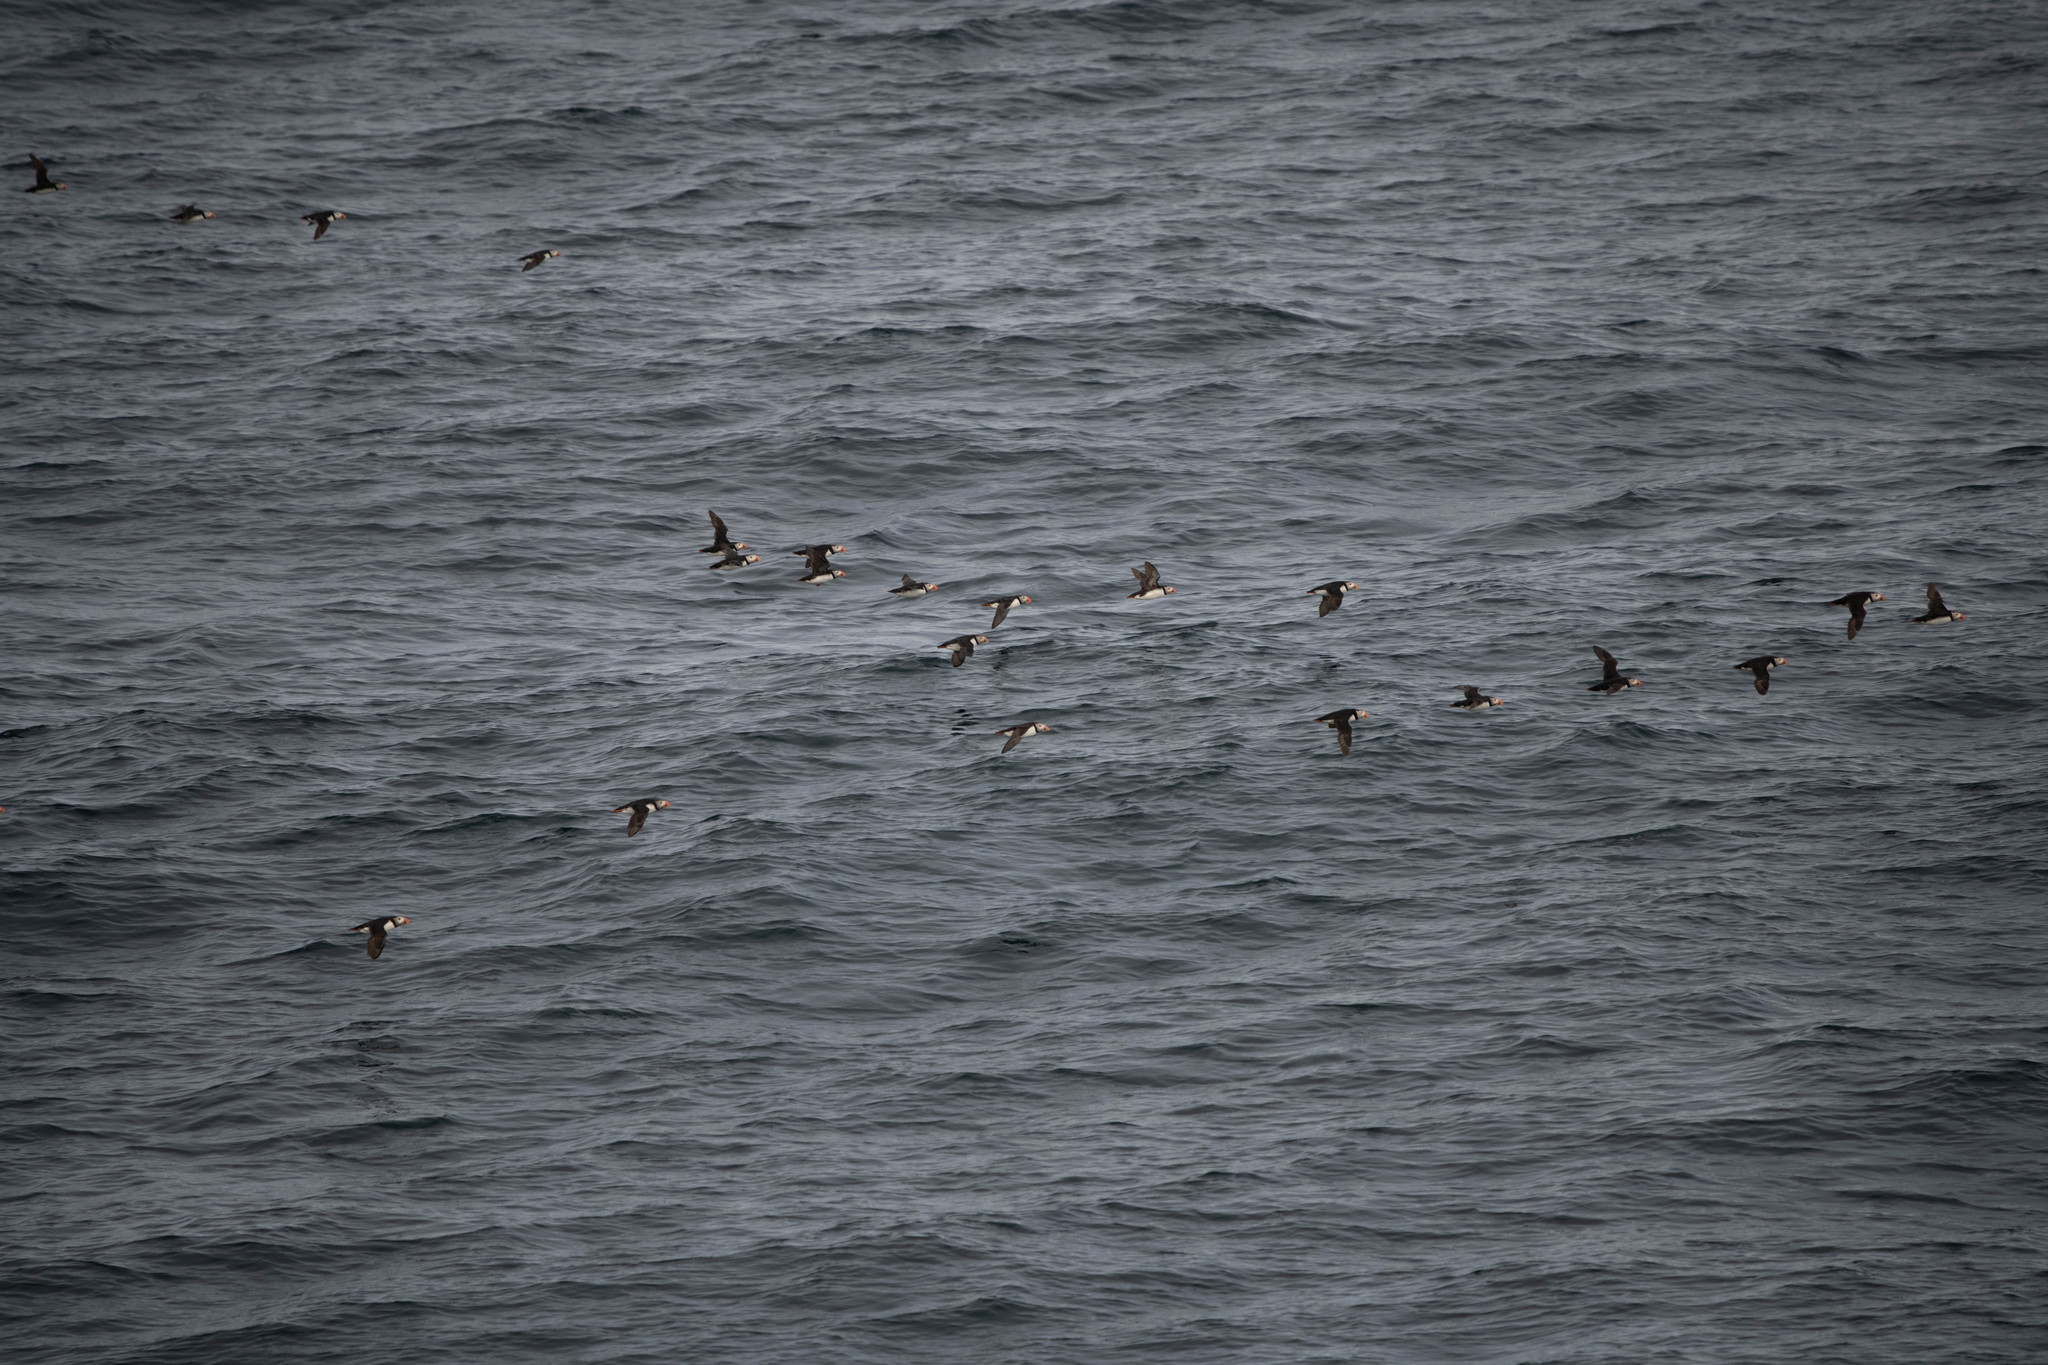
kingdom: Animalia
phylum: Chordata
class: Aves
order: Charadriiformes
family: Alcidae
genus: Fratercula
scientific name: Fratercula arctica
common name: Atlantic puffin
